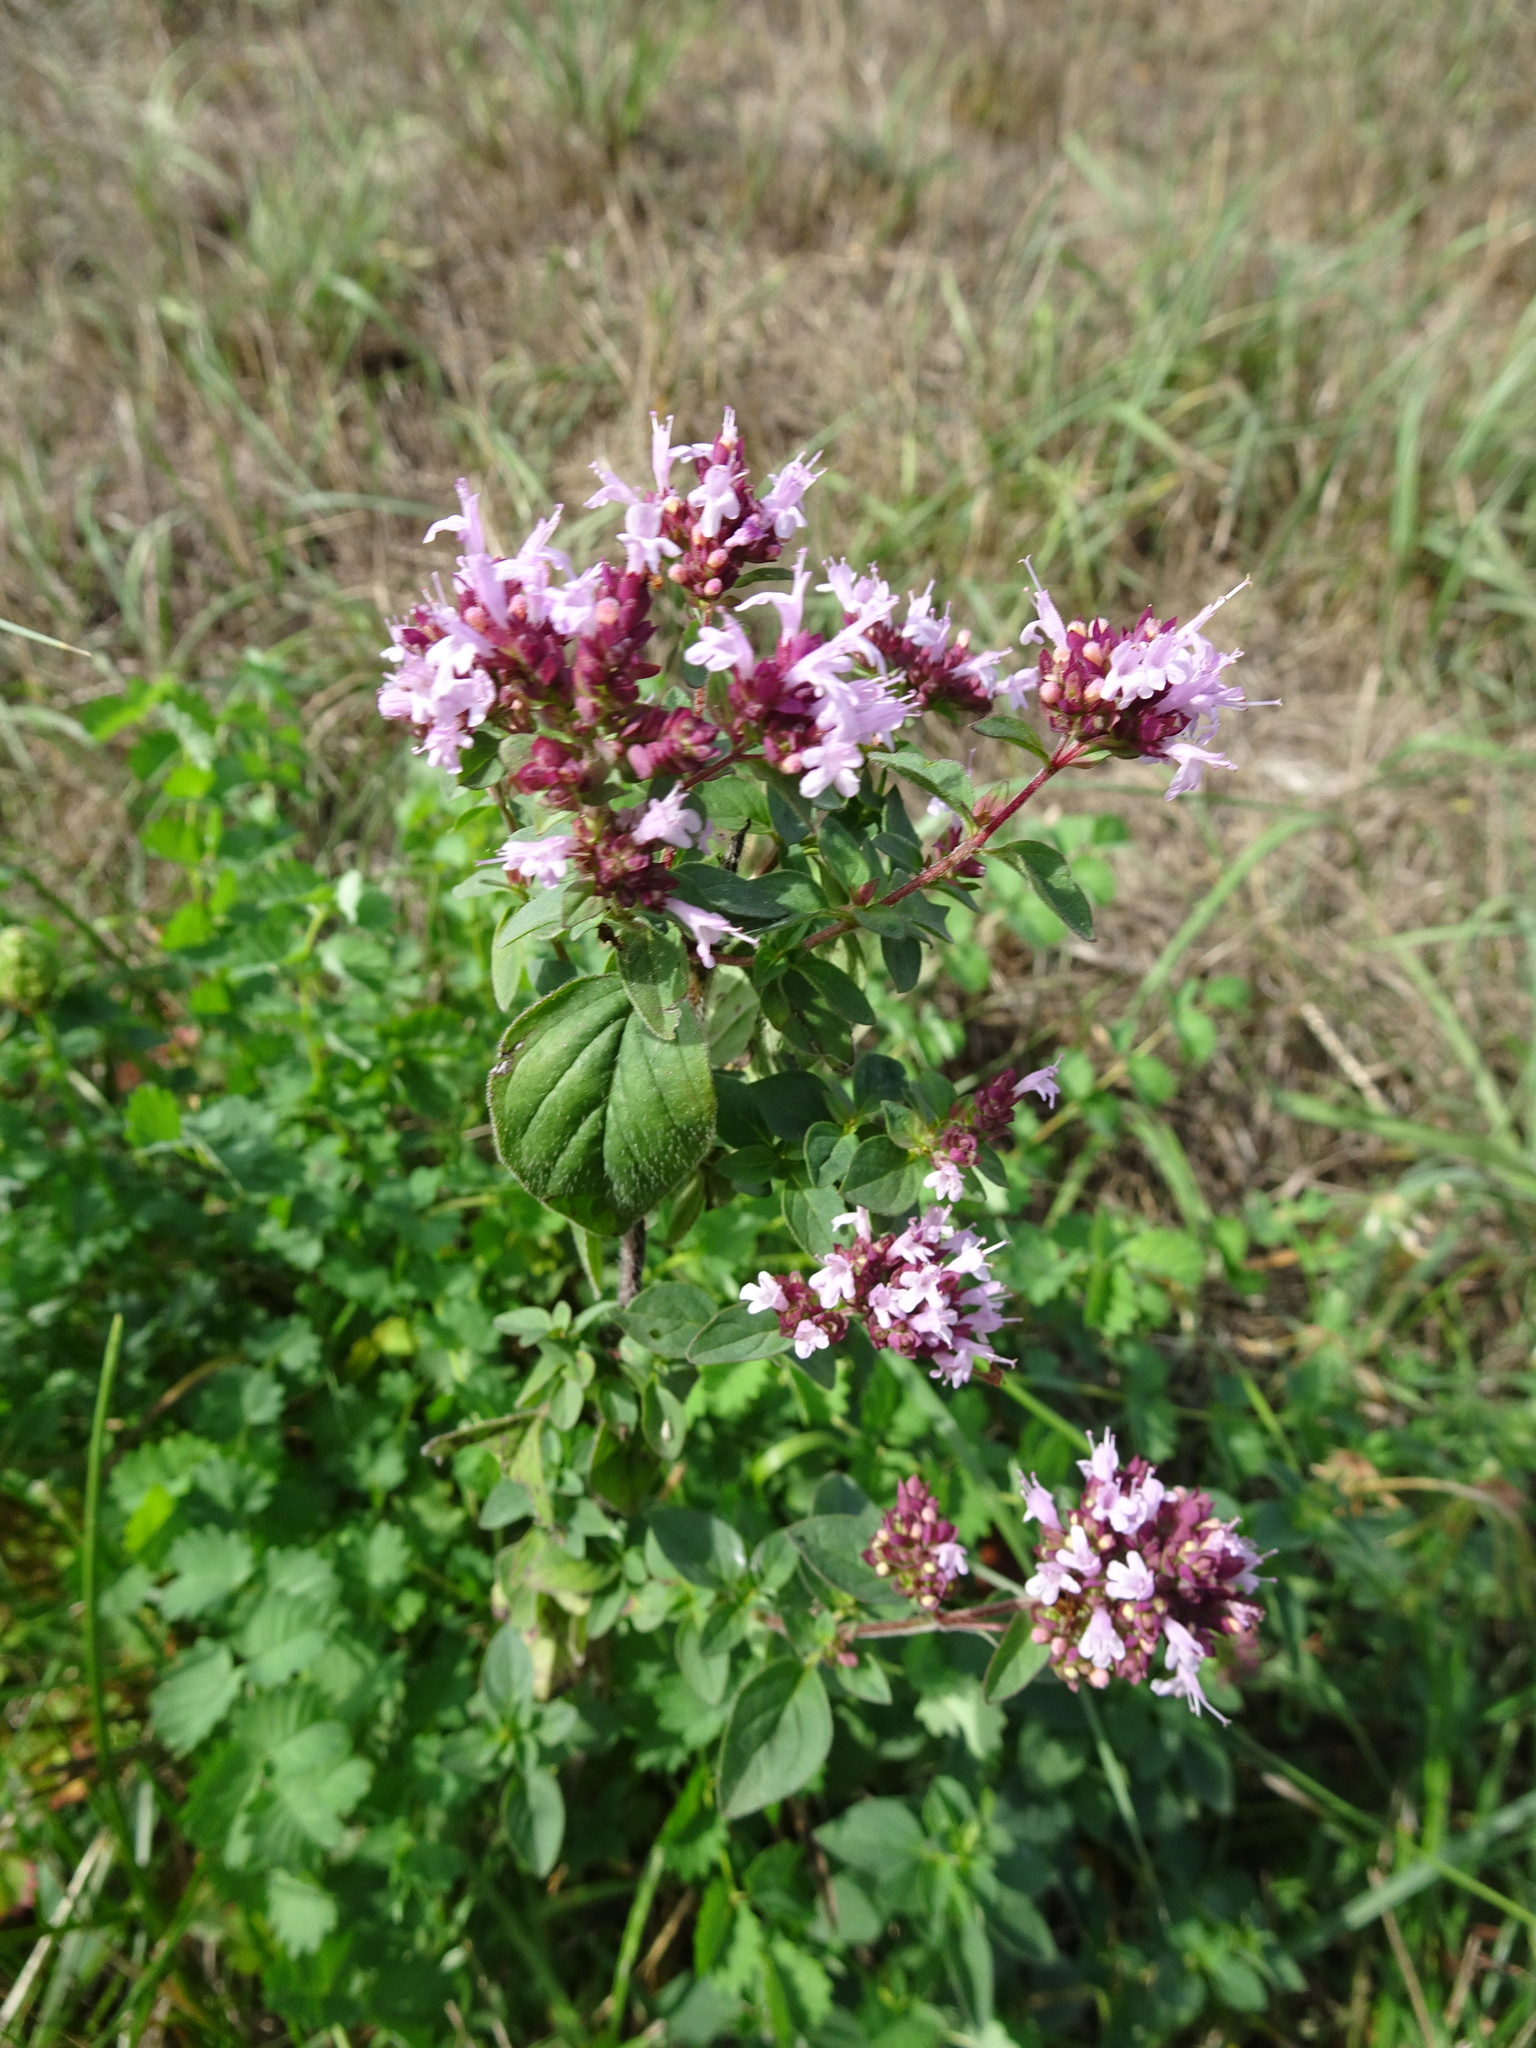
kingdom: Plantae
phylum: Tracheophyta
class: Magnoliopsida
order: Lamiales
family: Lamiaceae
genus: Origanum
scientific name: Origanum vulgare
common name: Wild marjoram
